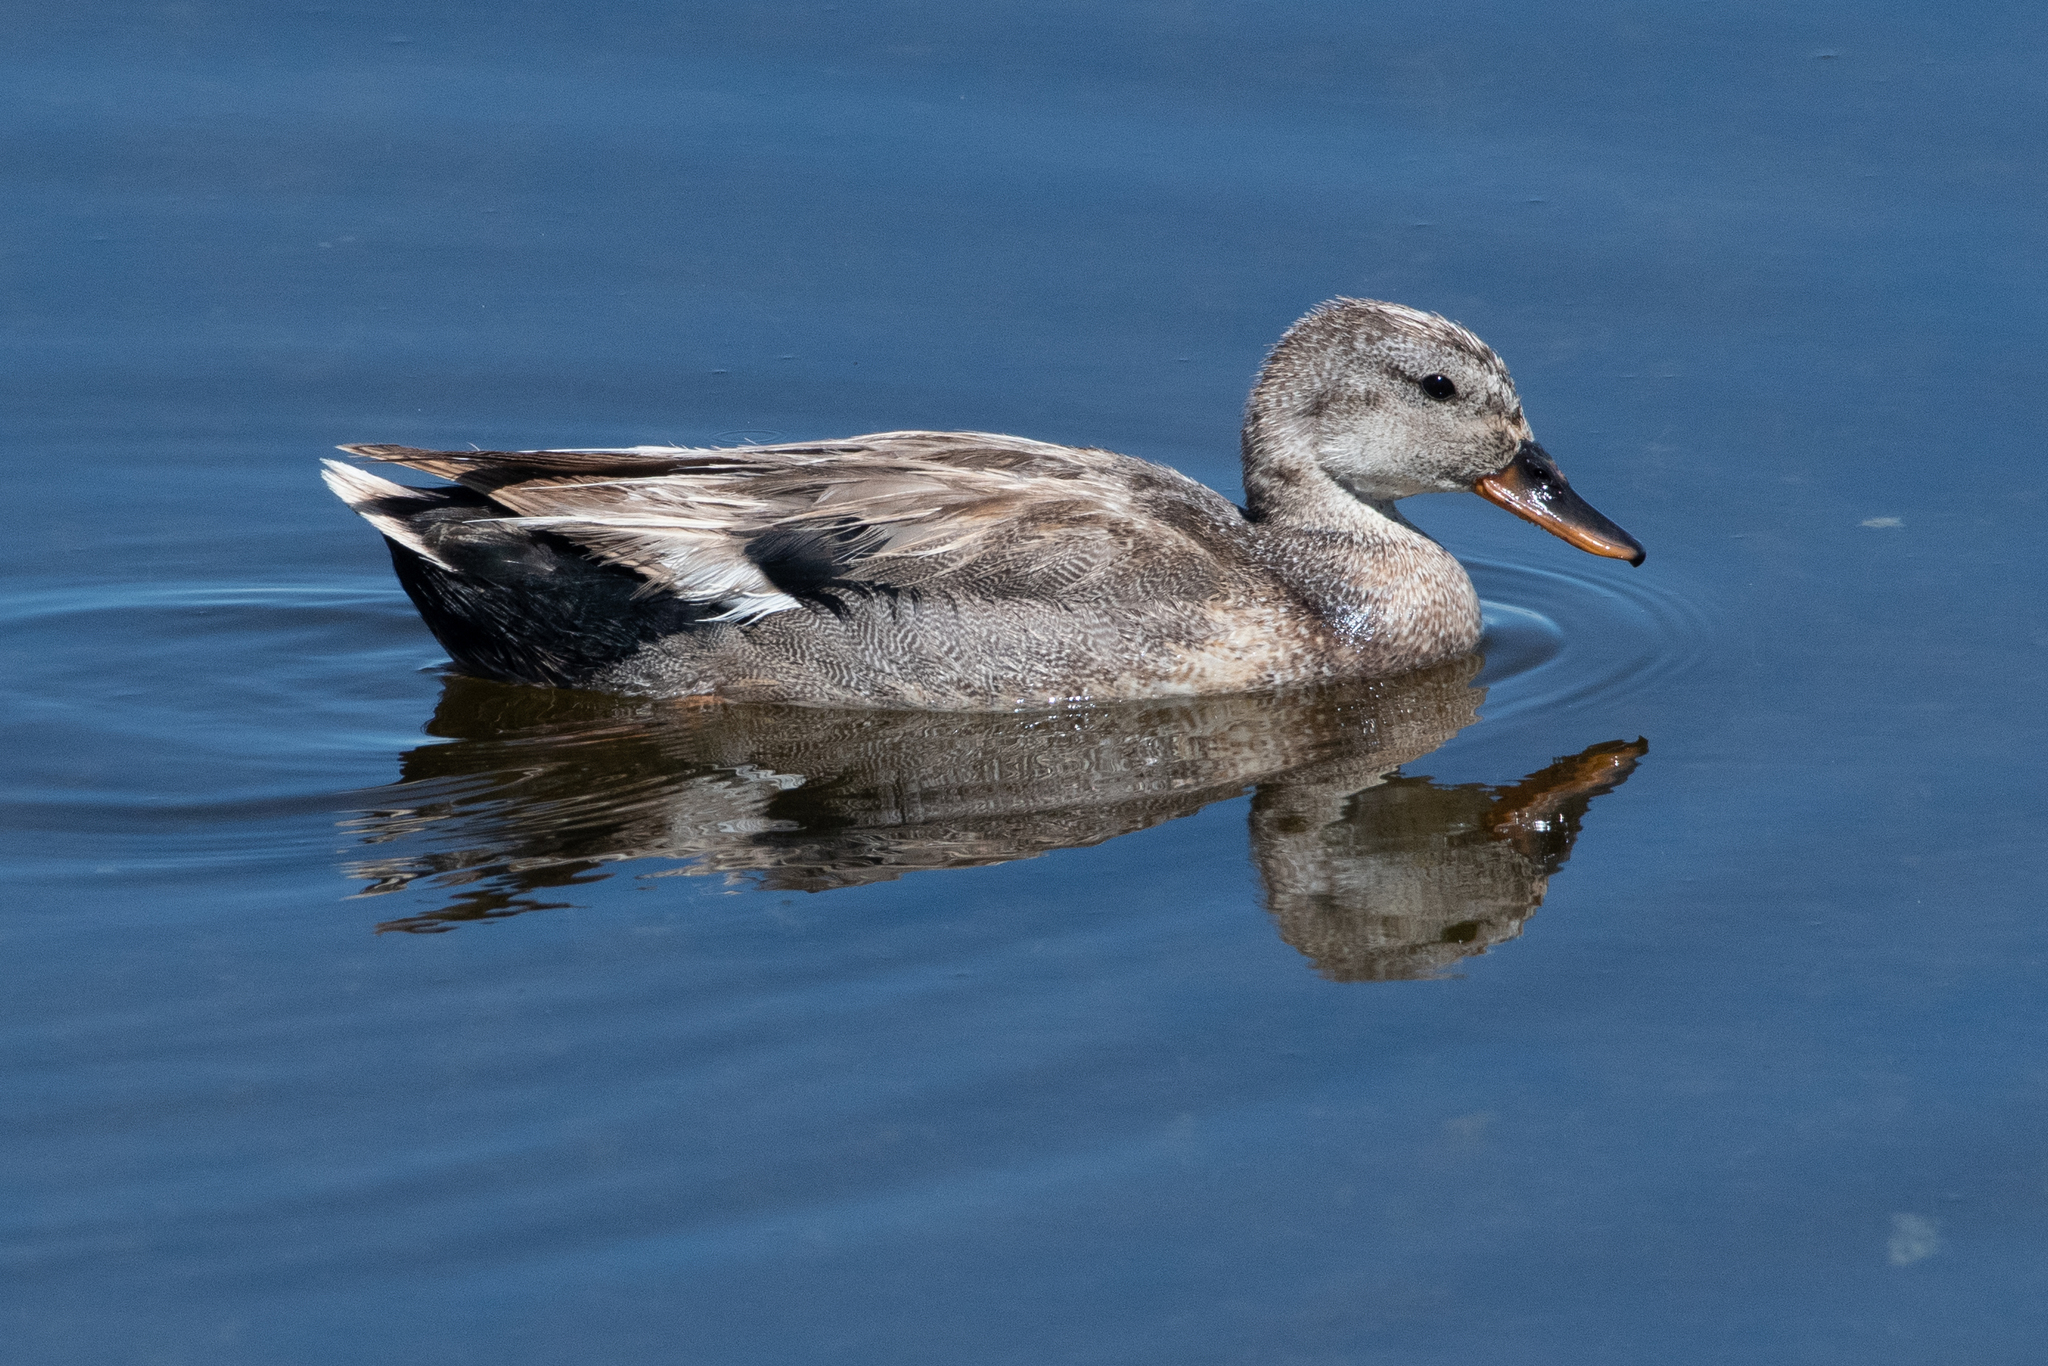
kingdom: Animalia
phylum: Chordata
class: Aves
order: Anseriformes
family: Anatidae
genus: Mareca
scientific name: Mareca strepera
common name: Gadwall
